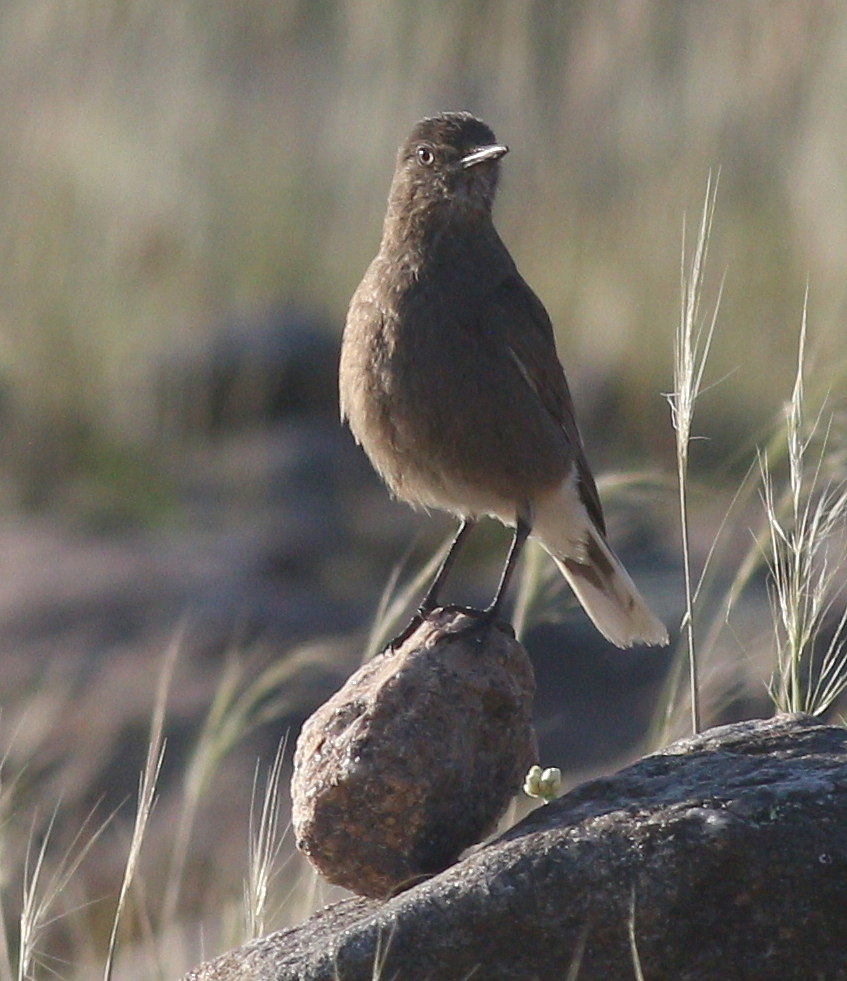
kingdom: Animalia
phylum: Chordata
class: Aves
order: Passeriformes
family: Tyrannidae
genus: Agriornis
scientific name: Agriornis montanus
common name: Black-billed shrike-tyrant
